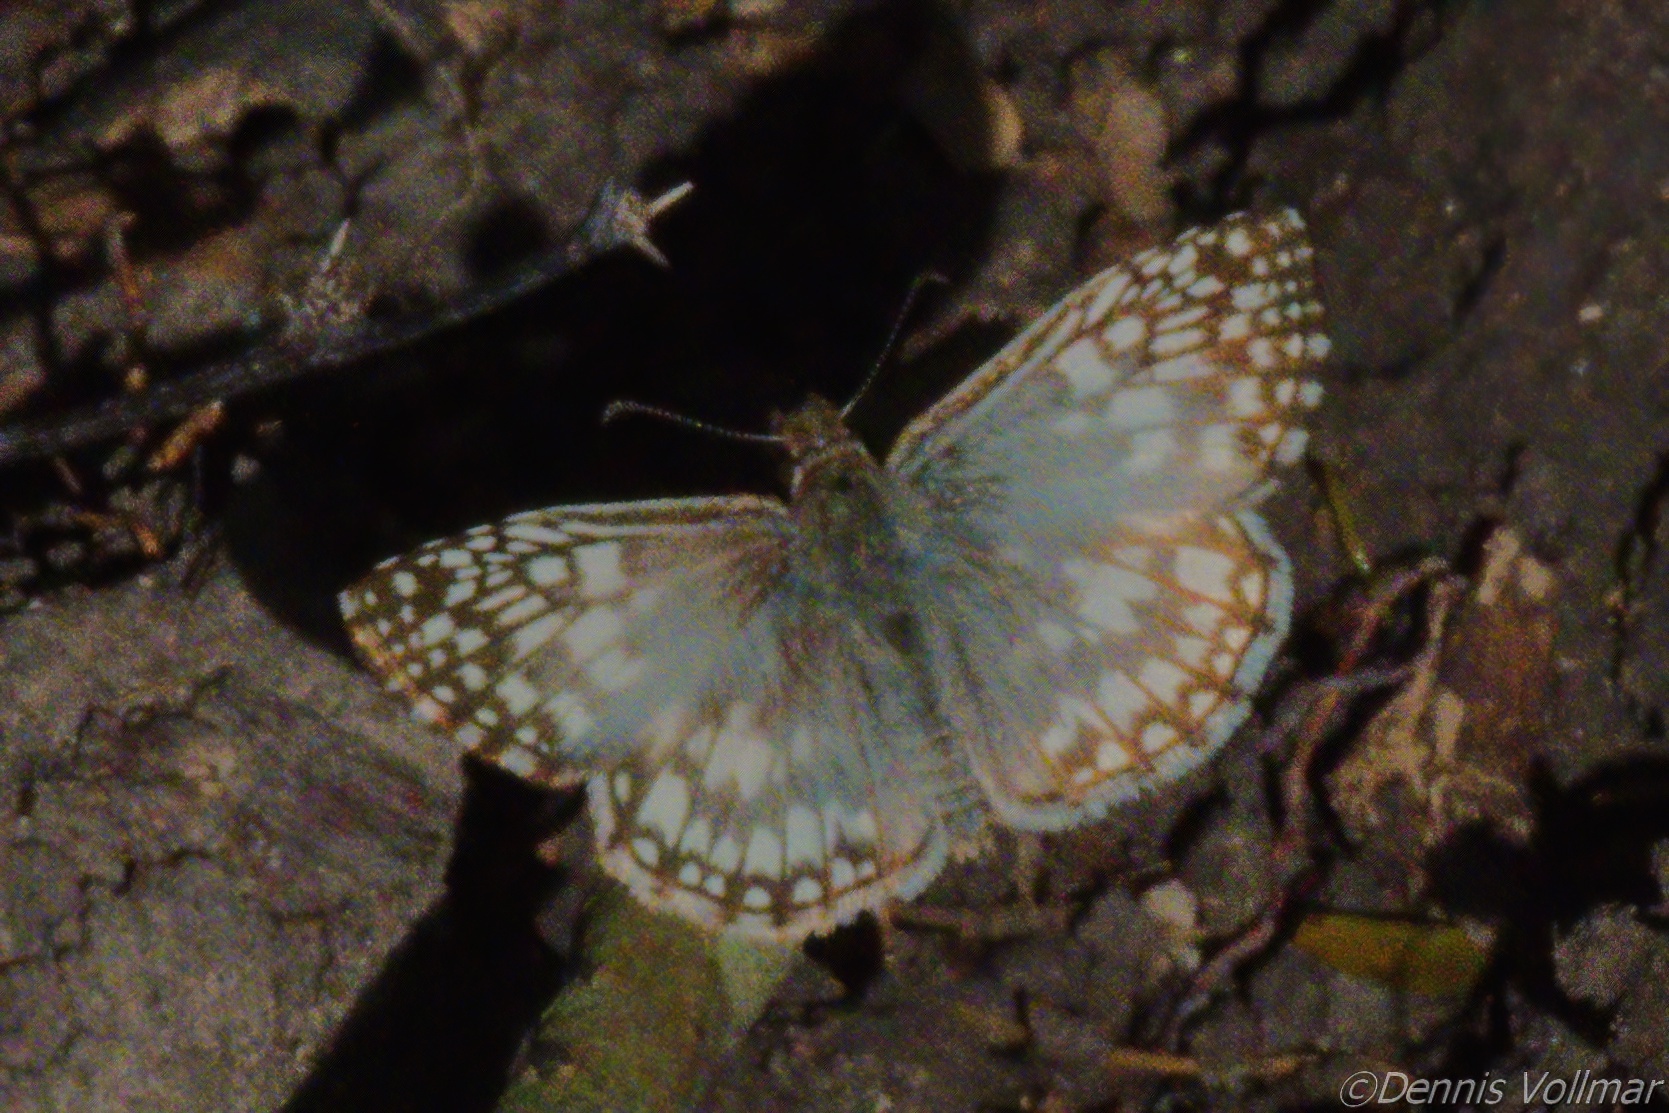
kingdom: Animalia
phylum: Arthropoda
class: Insecta
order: Lepidoptera
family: Hesperiidae
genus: Pyrgus
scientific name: Pyrgus oileus
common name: Tropical checkered-skipper
